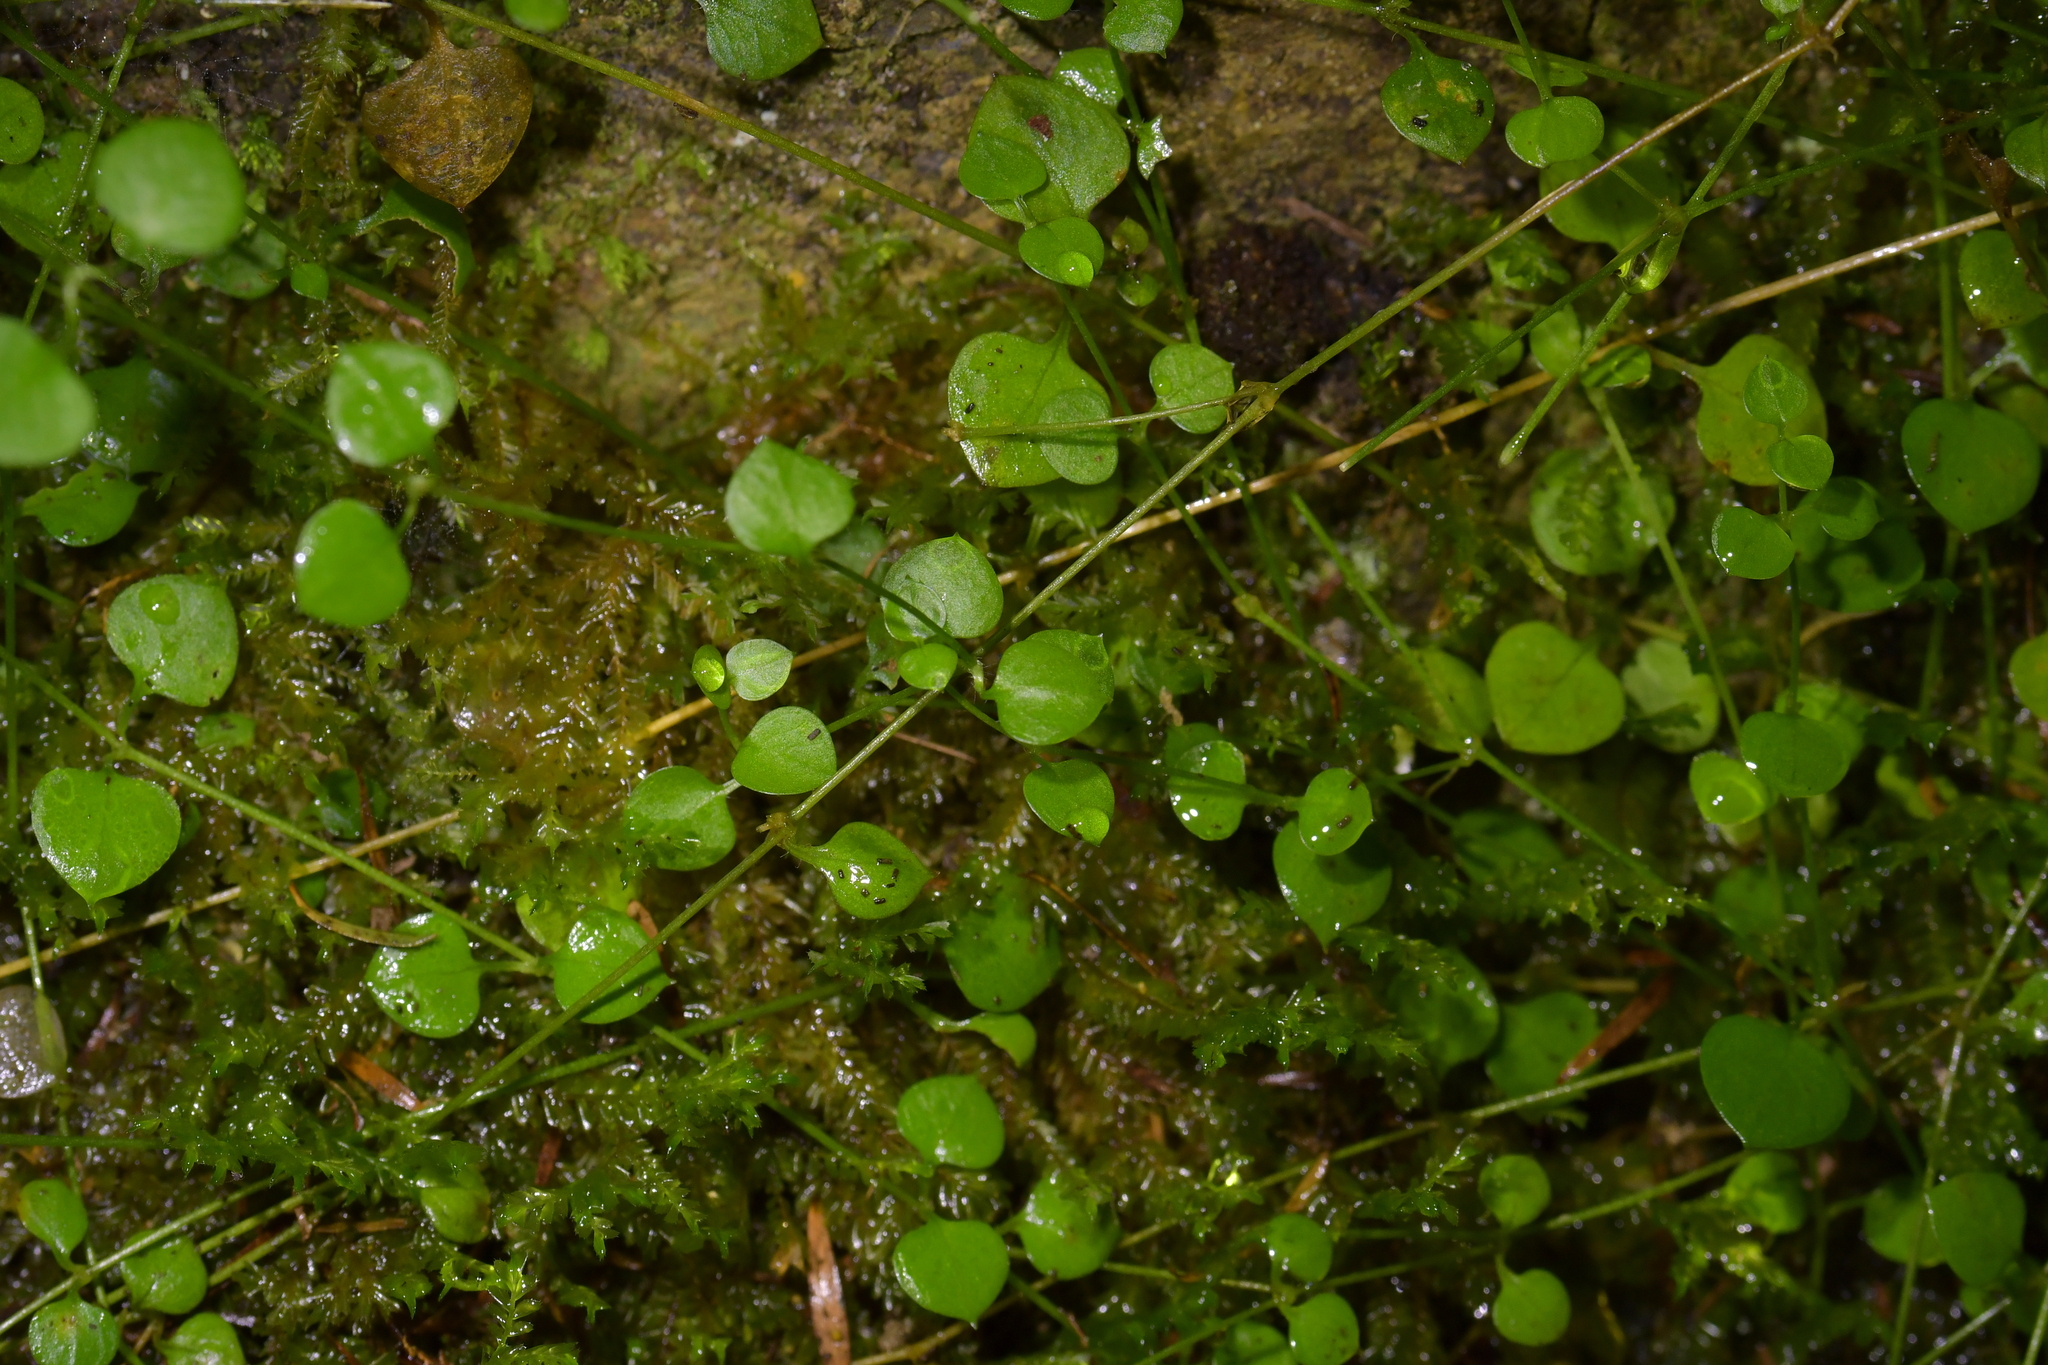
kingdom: Plantae
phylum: Tracheophyta
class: Magnoliopsida
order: Caryophyllales
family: Caryophyllaceae
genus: Stellaria
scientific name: Stellaria parviflora
